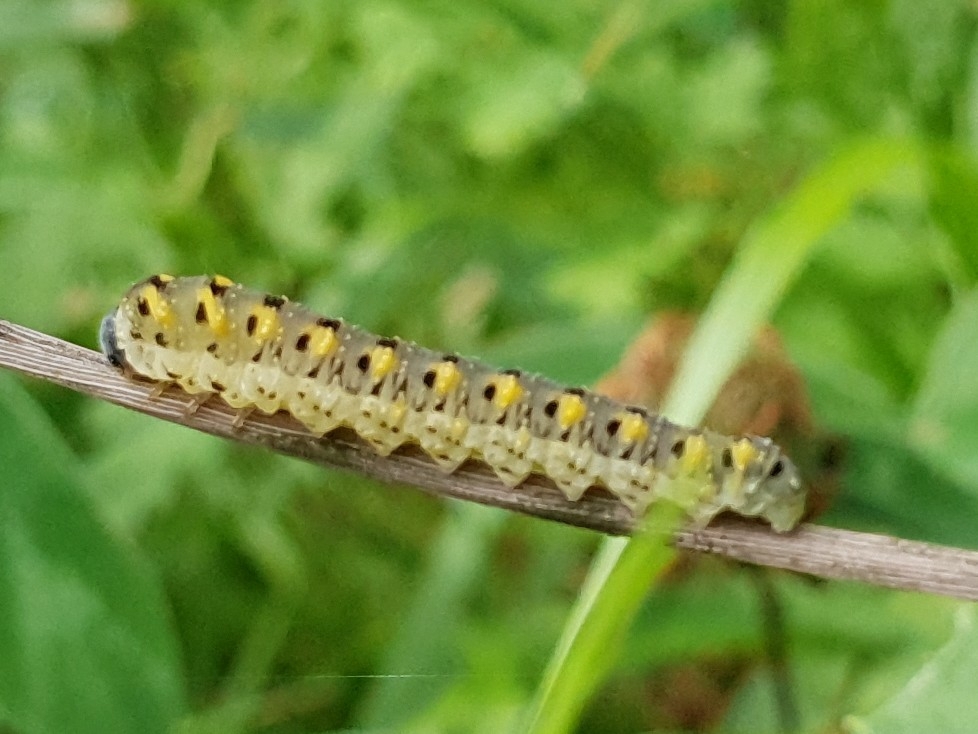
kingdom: Animalia
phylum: Arthropoda
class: Insecta
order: Hymenoptera
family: Tenthredinidae
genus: Tenthredo
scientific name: Tenthredo crassa
